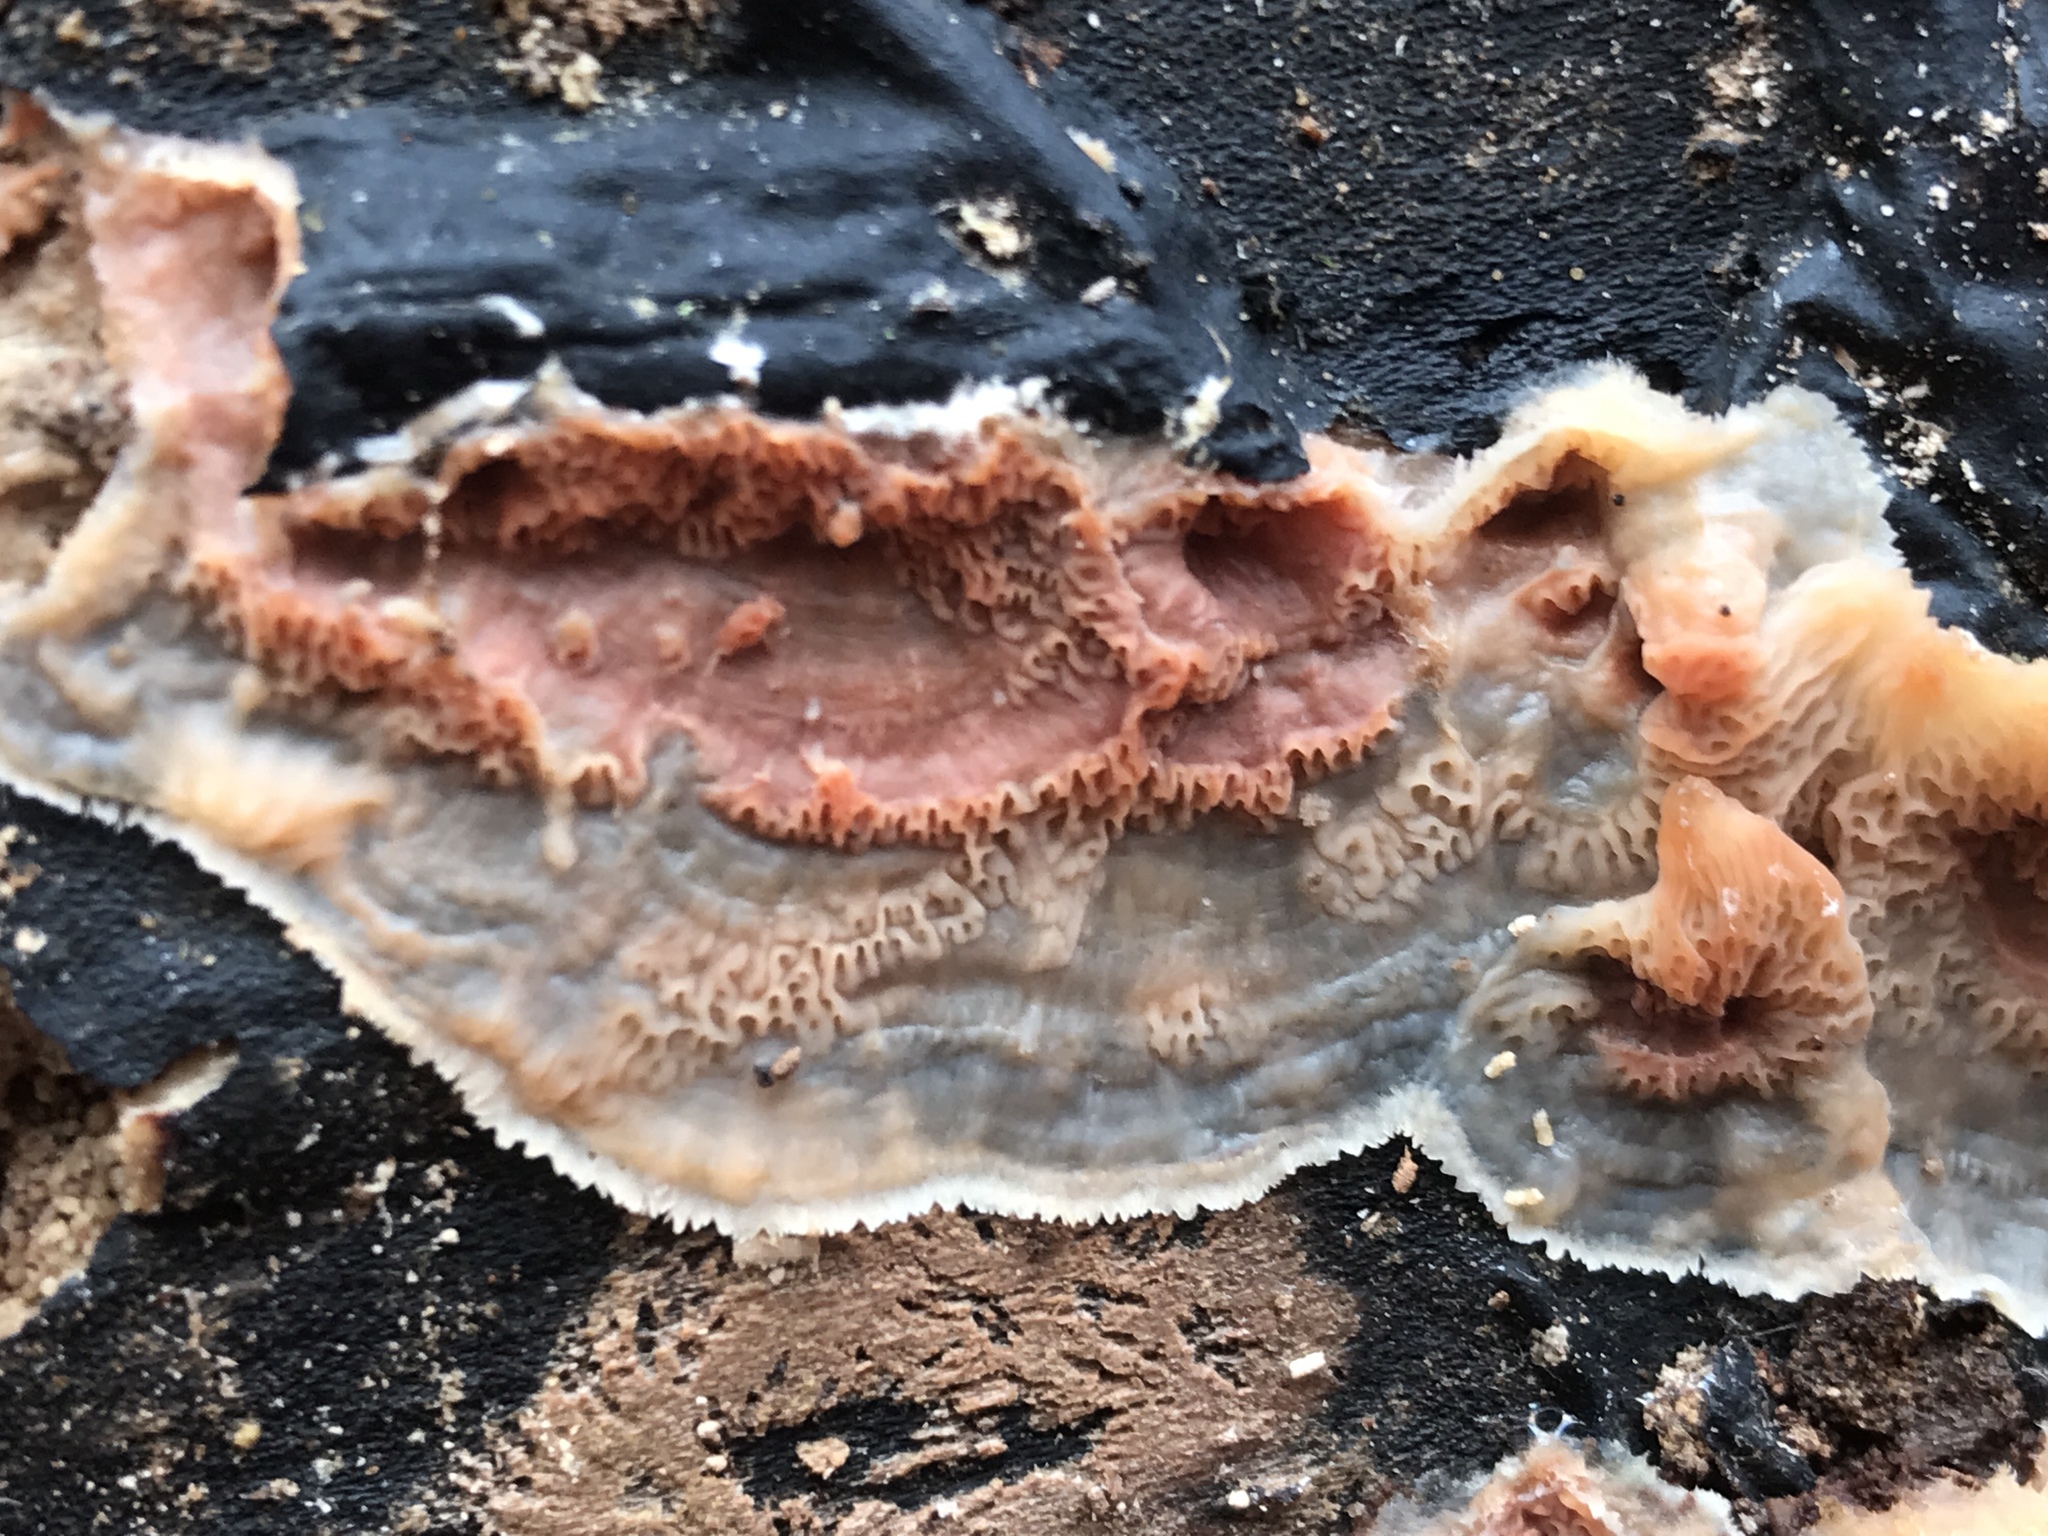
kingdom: Fungi
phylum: Basidiomycota
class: Agaricomycetes
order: Polyporales
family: Meruliaceae
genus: Phlebia
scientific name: Phlebia tremellosa
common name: Jelly rot
